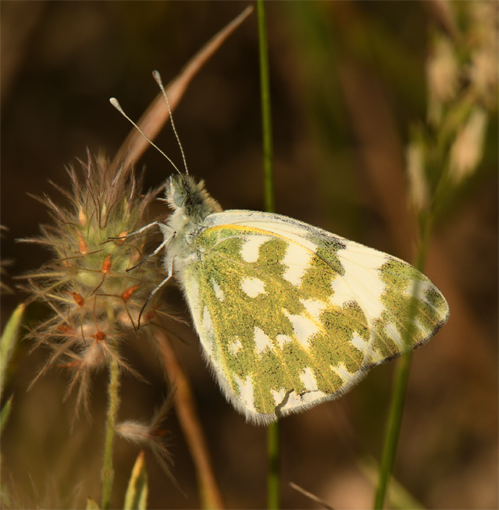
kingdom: Animalia
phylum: Arthropoda
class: Insecta
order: Lepidoptera
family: Pieridae
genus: Pontia
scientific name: Pontia edusa
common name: Eastern bath white
